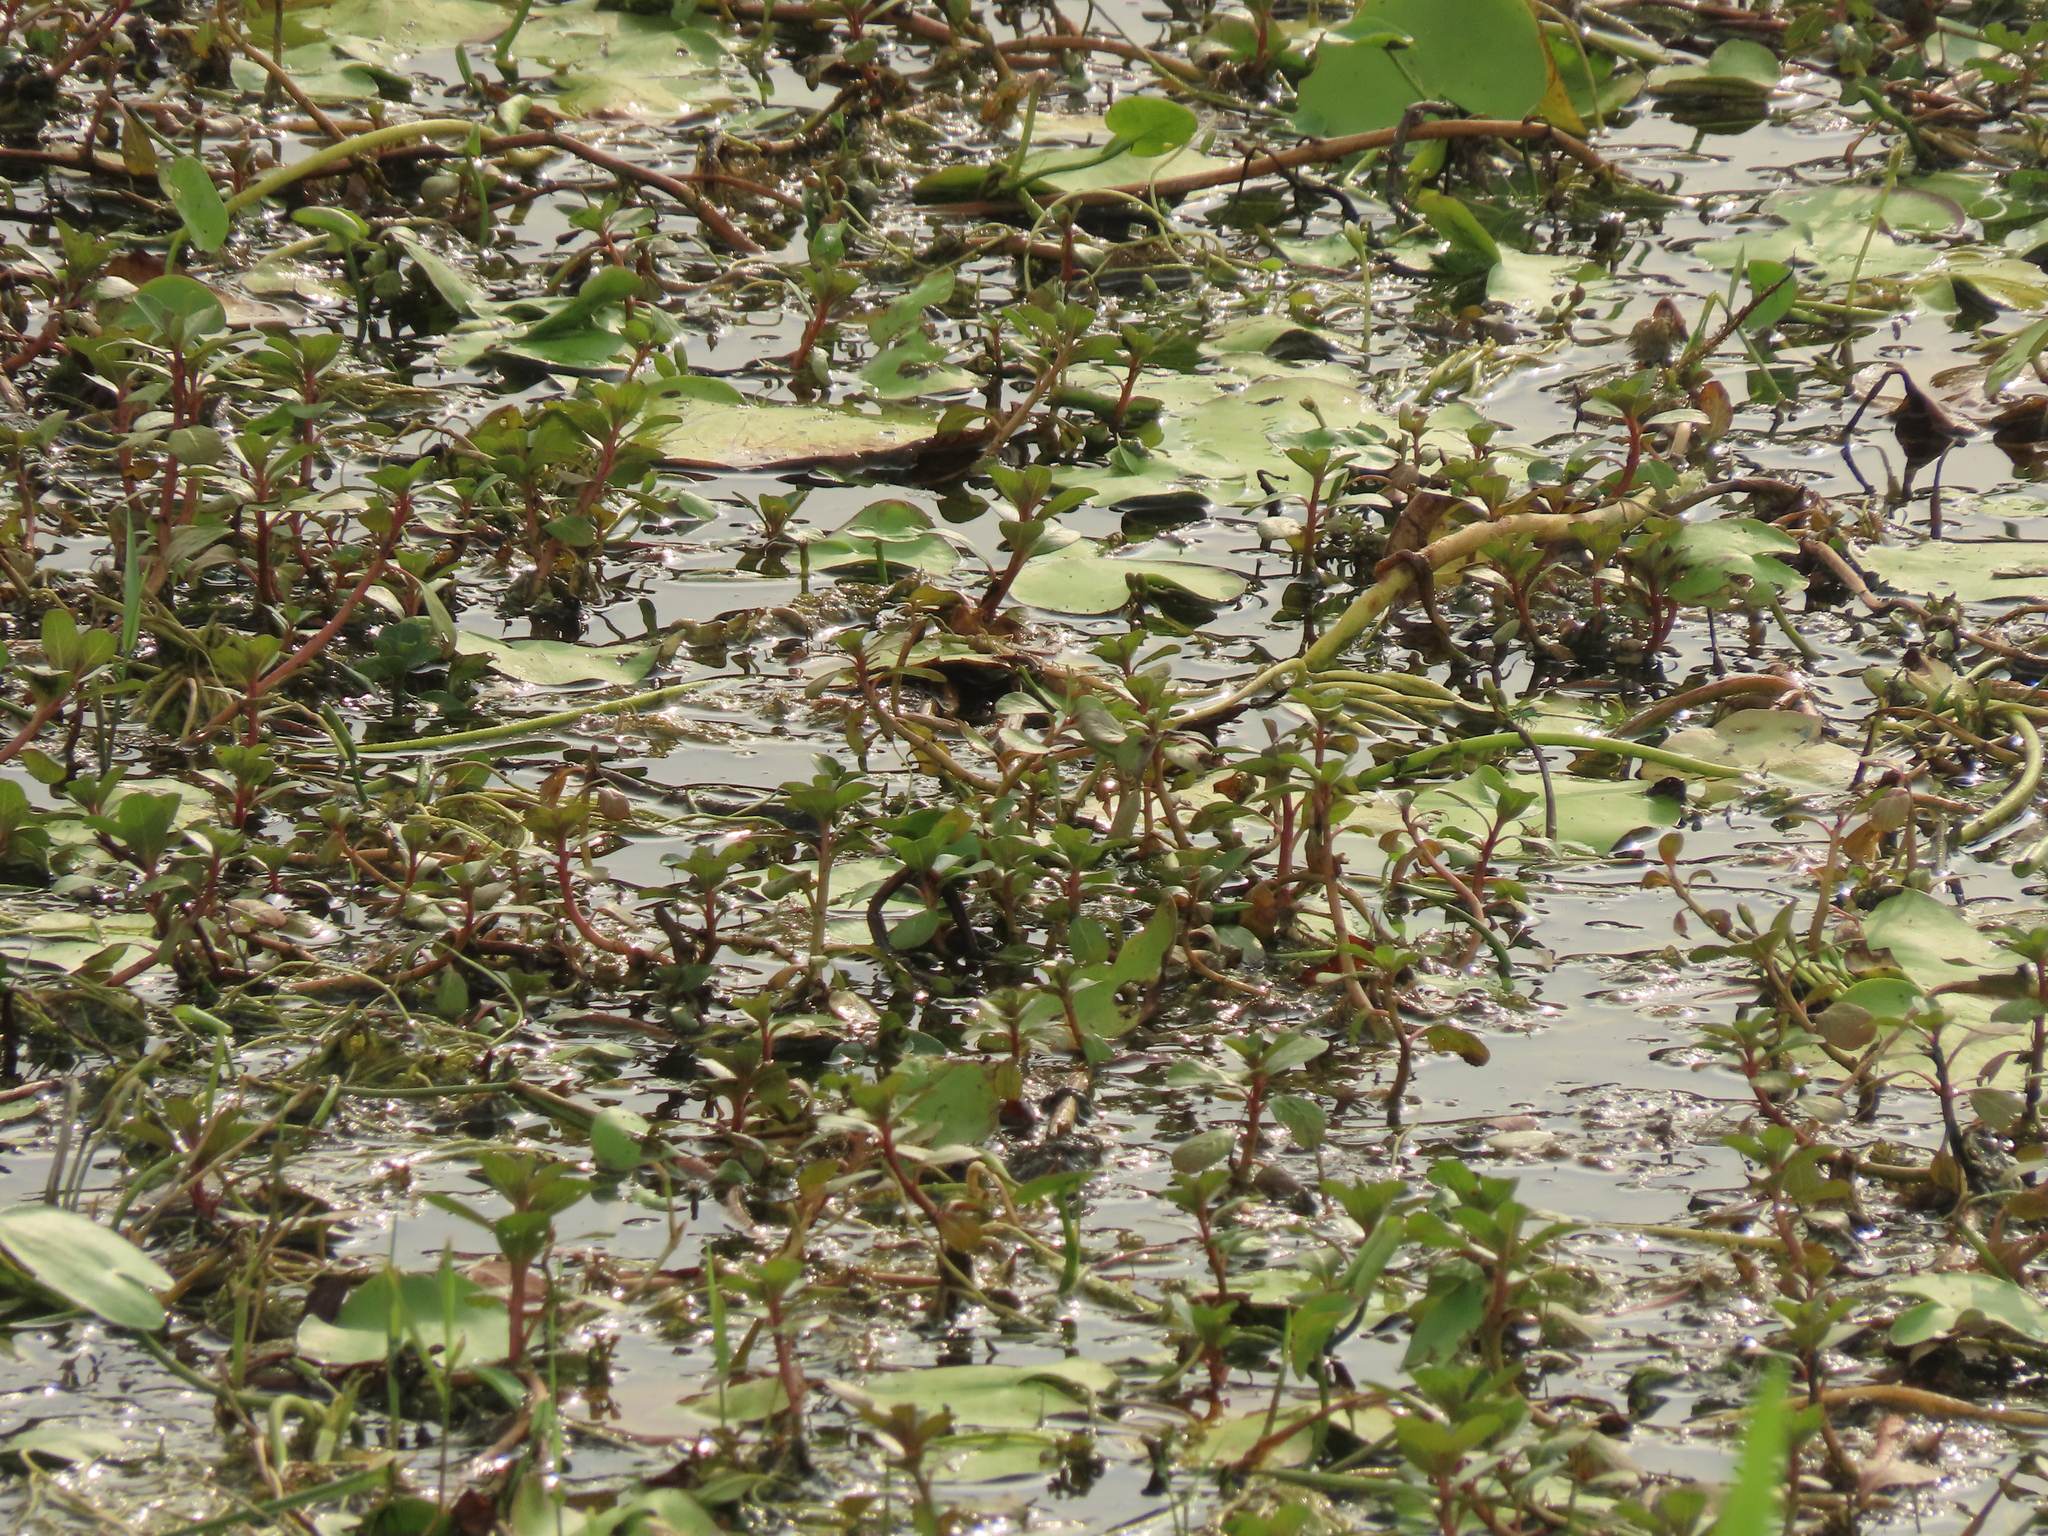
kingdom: Plantae
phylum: Tracheophyta
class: Magnoliopsida
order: Myrtales
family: Onagraceae
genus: Ludwigia
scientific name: Ludwigia adscendens
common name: Creeping water primrose
